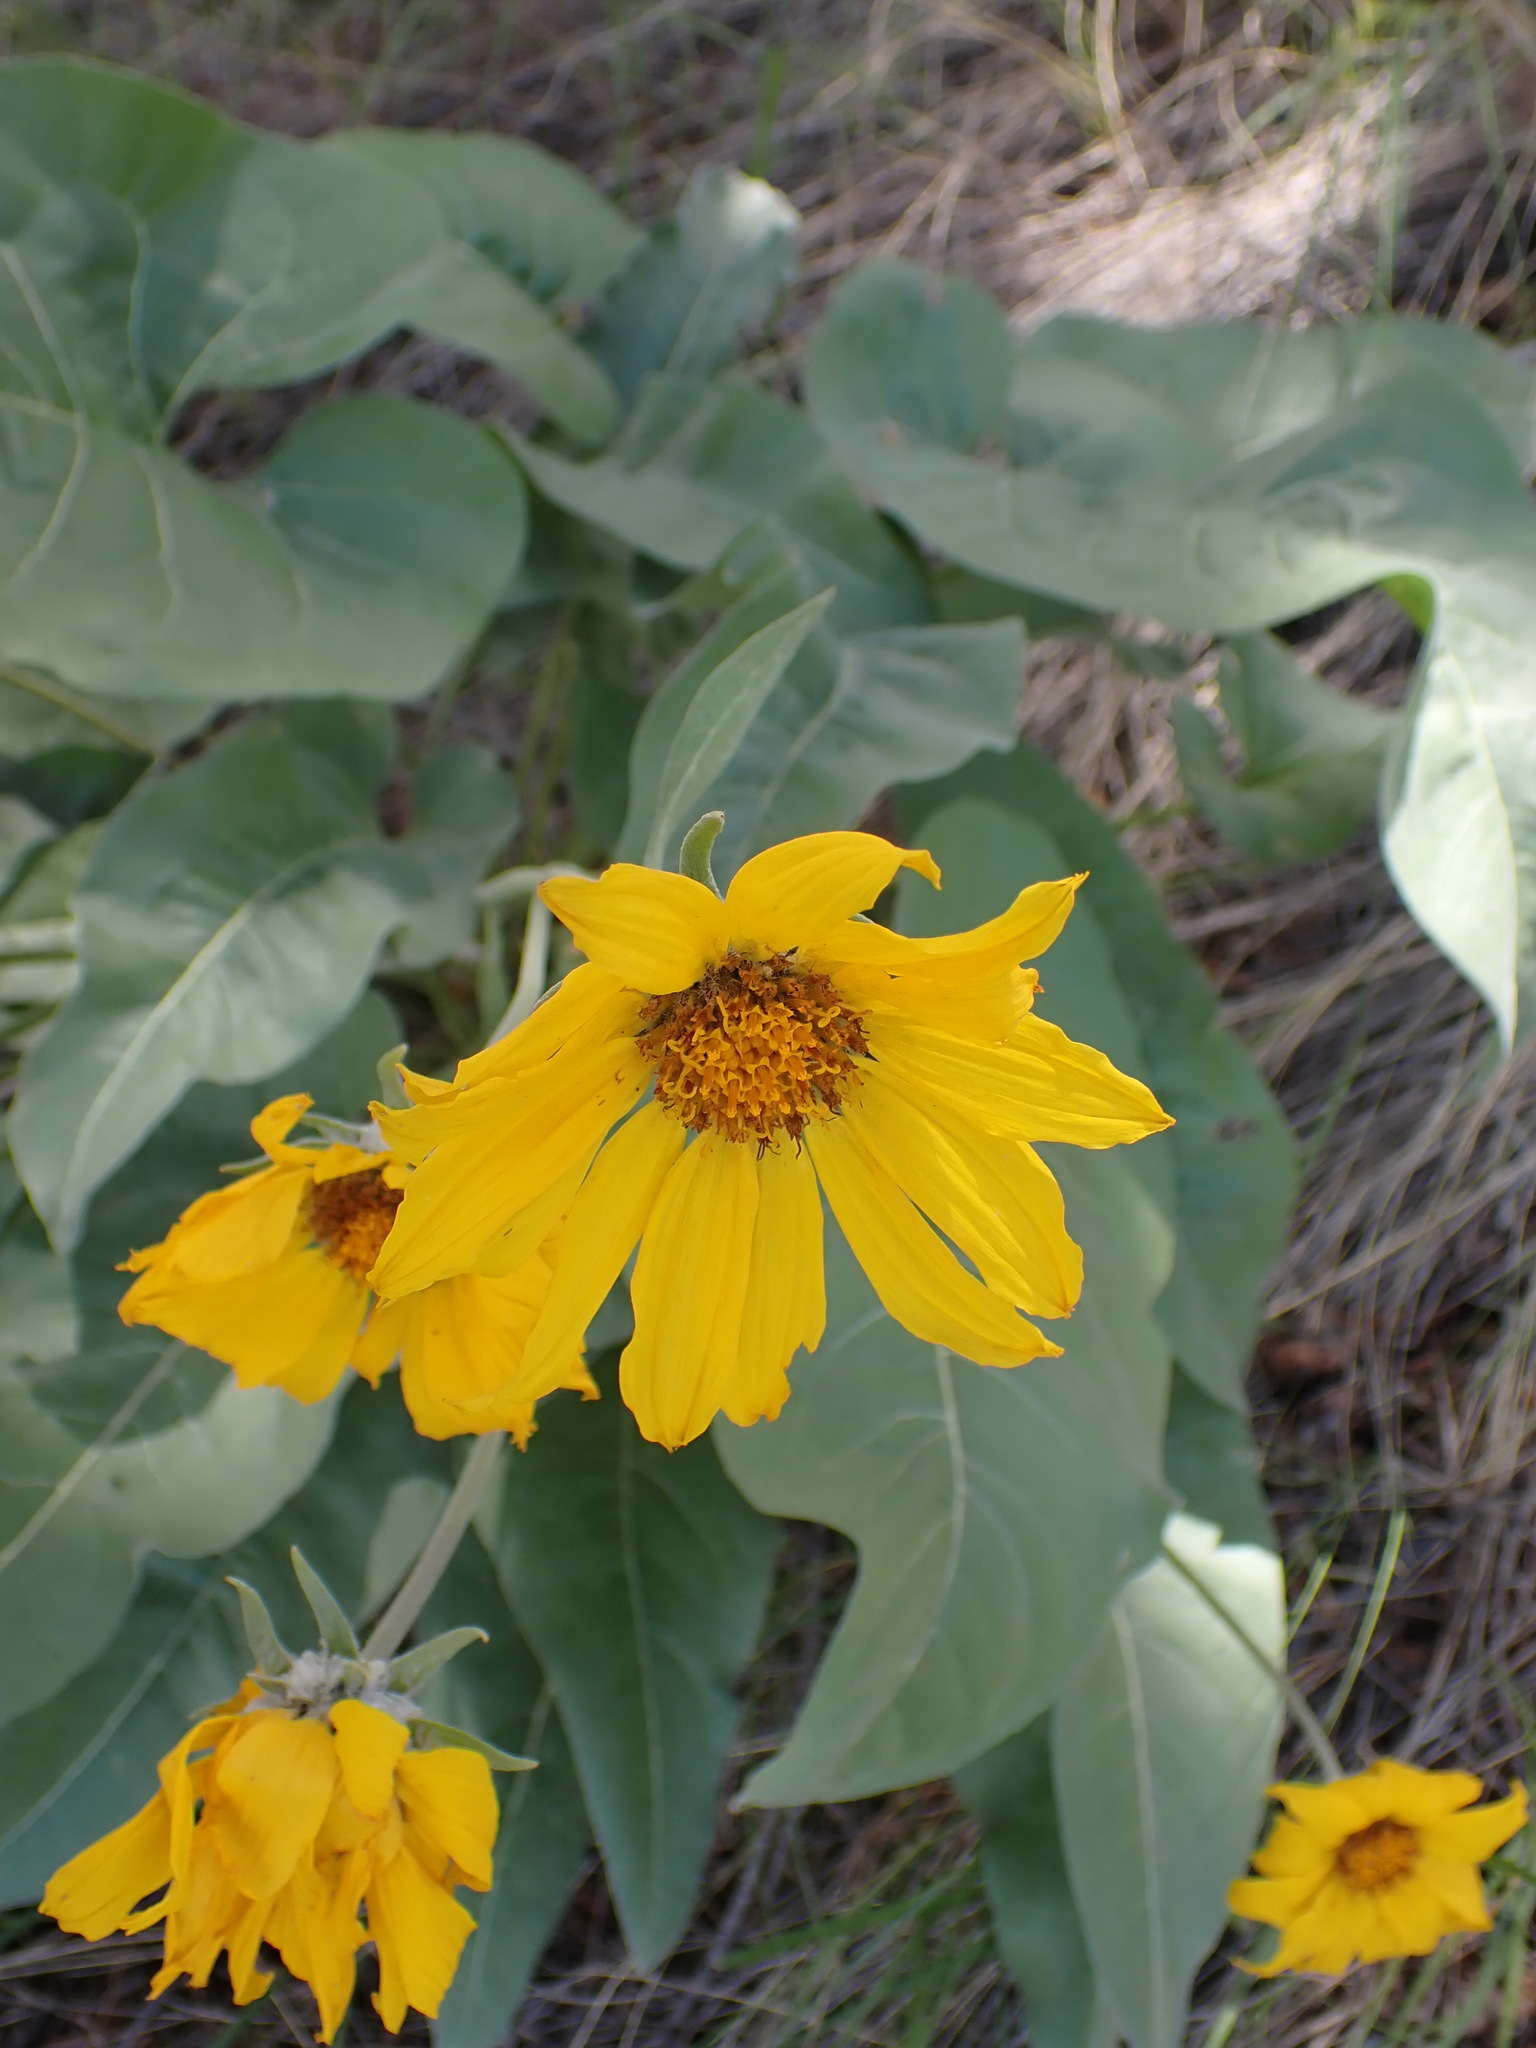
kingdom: Plantae
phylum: Tracheophyta
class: Magnoliopsida
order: Asterales
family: Asteraceae
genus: Wyethia
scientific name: Wyethia sagittata
